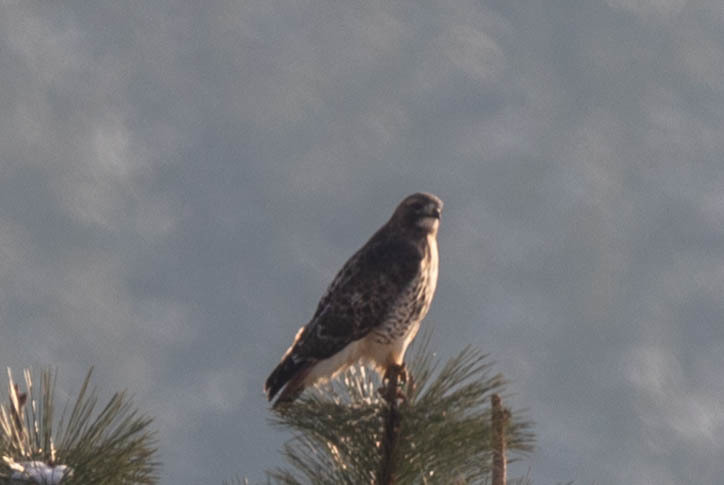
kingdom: Animalia
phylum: Chordata
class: Aves
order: Accipitriformes
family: Accipitridae
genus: Buteo
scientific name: Buteo jamaicensis
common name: Red-tailed hawk
